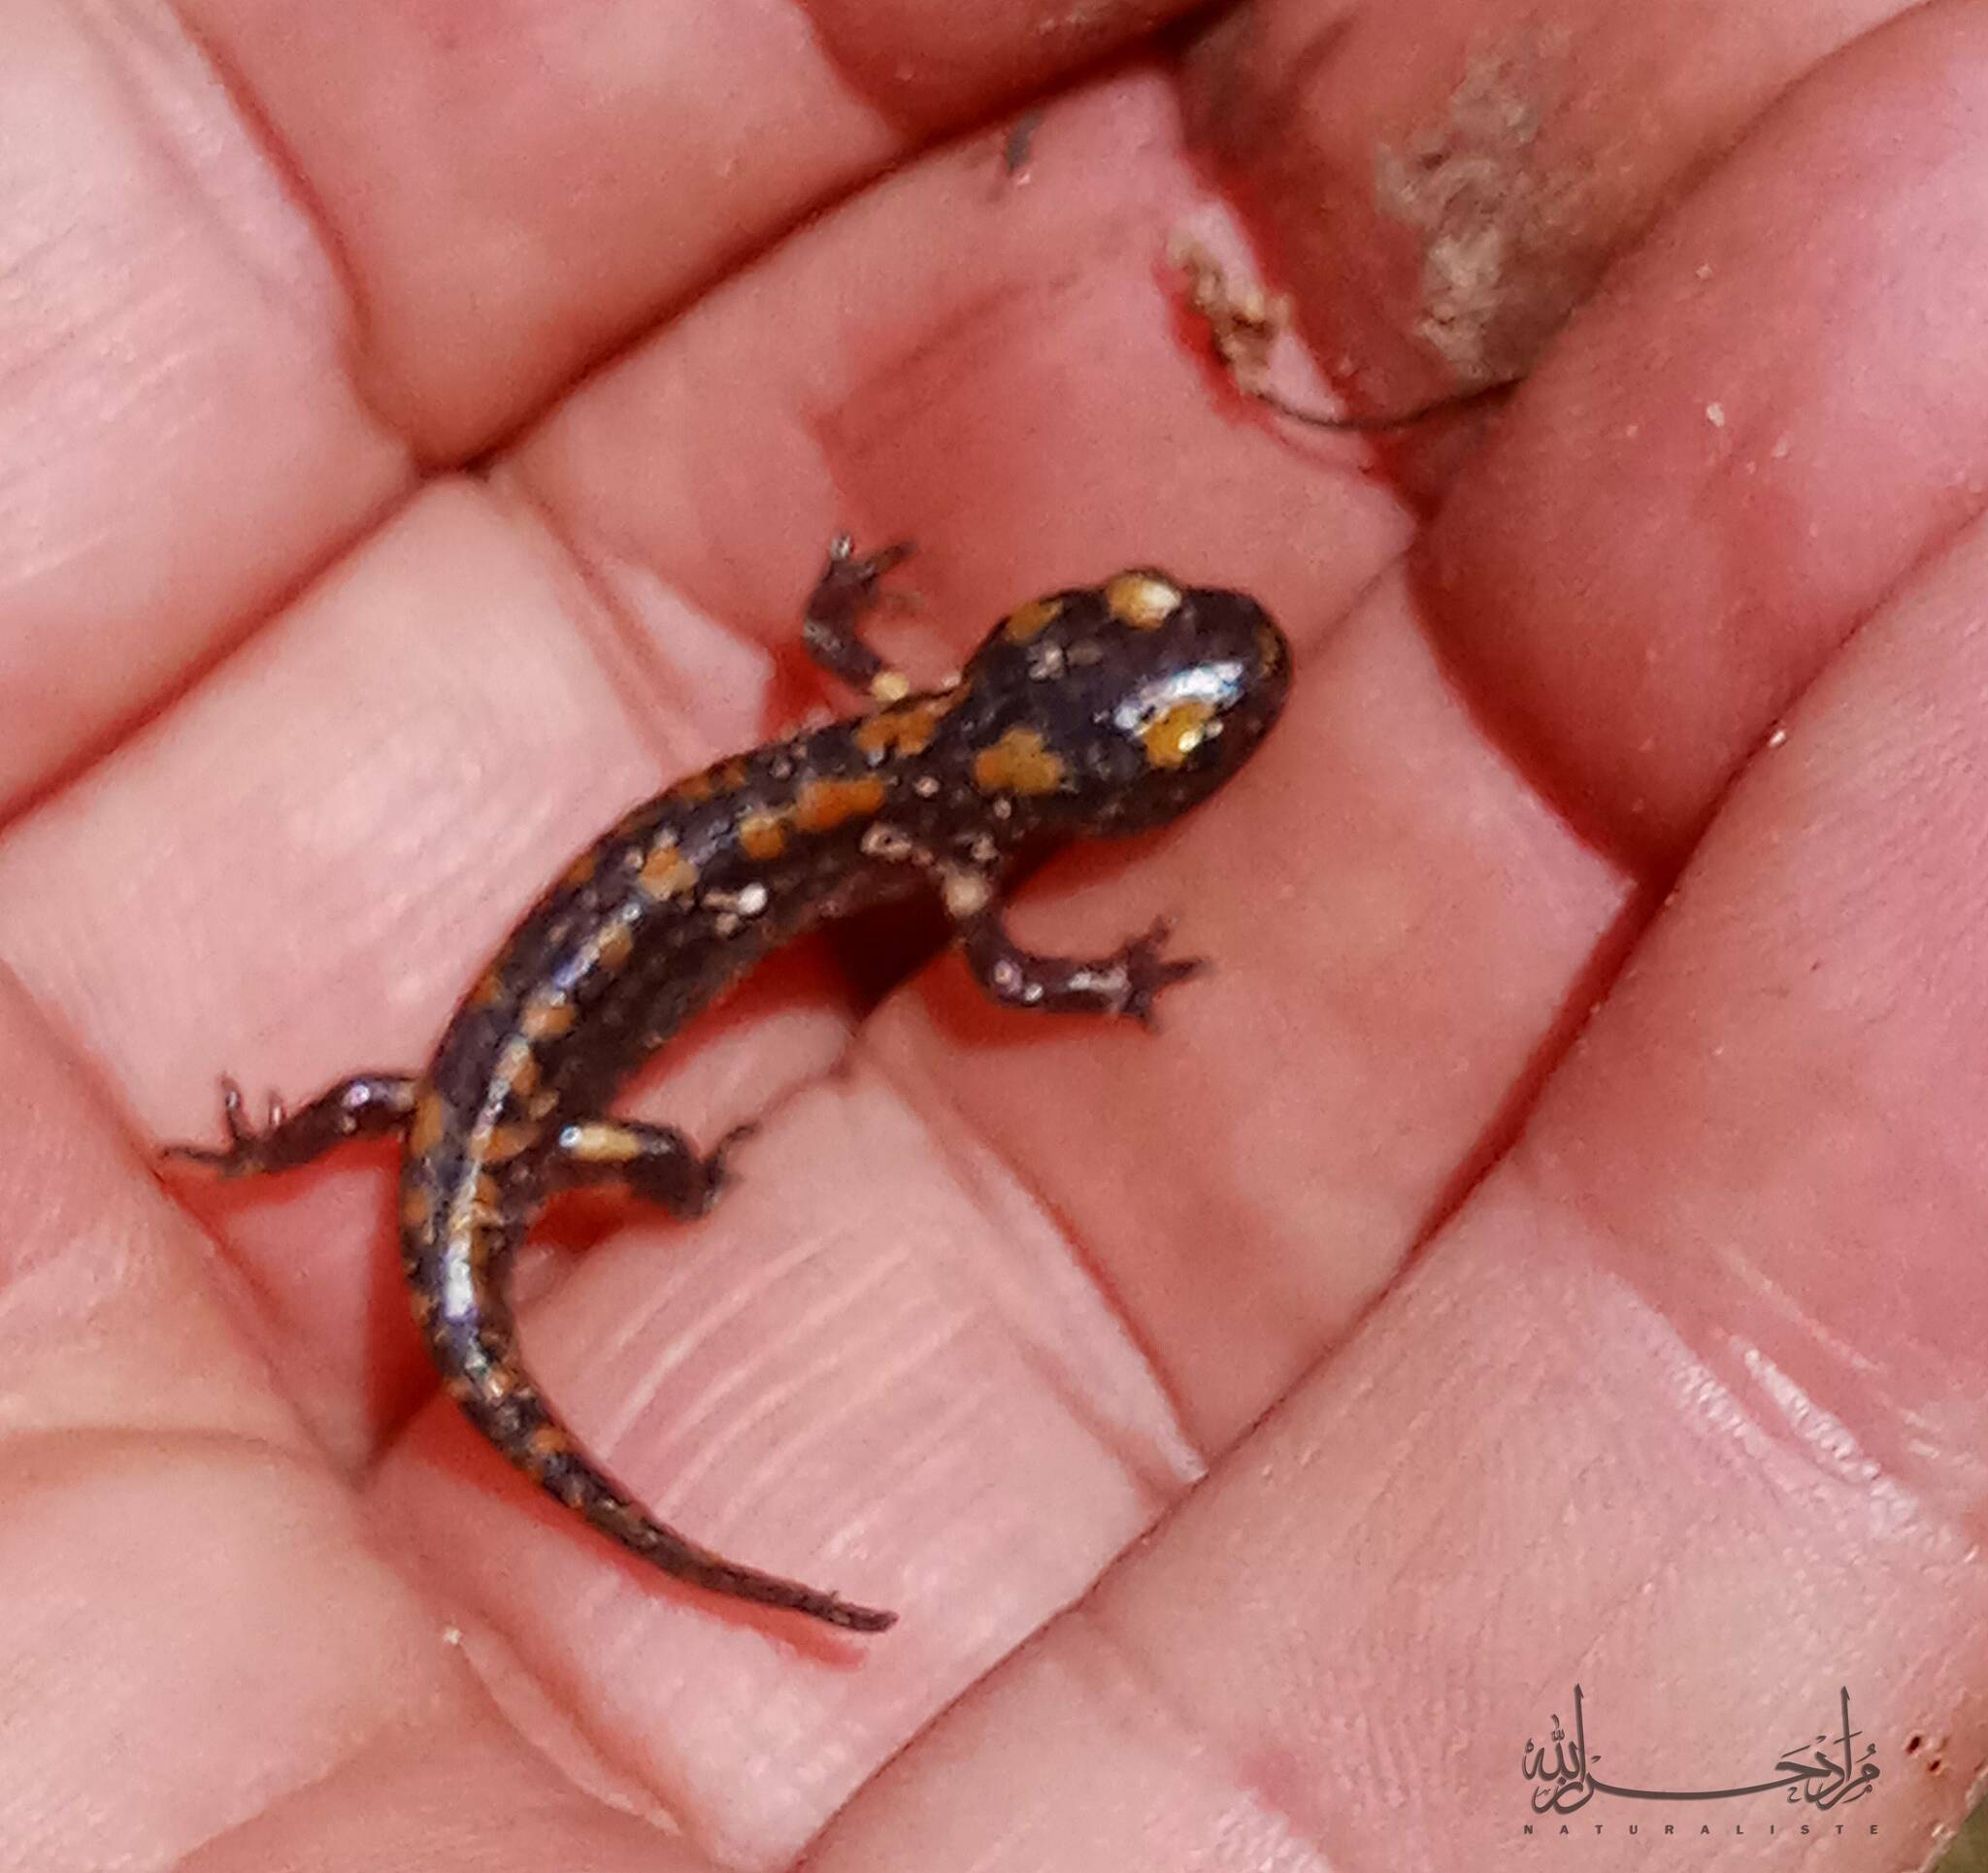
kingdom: Animalia
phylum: Chordata
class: Amphibia
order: Caudata
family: Salamandridae
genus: Salamandra
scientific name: Salamandra algira
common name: North african fire salamander
